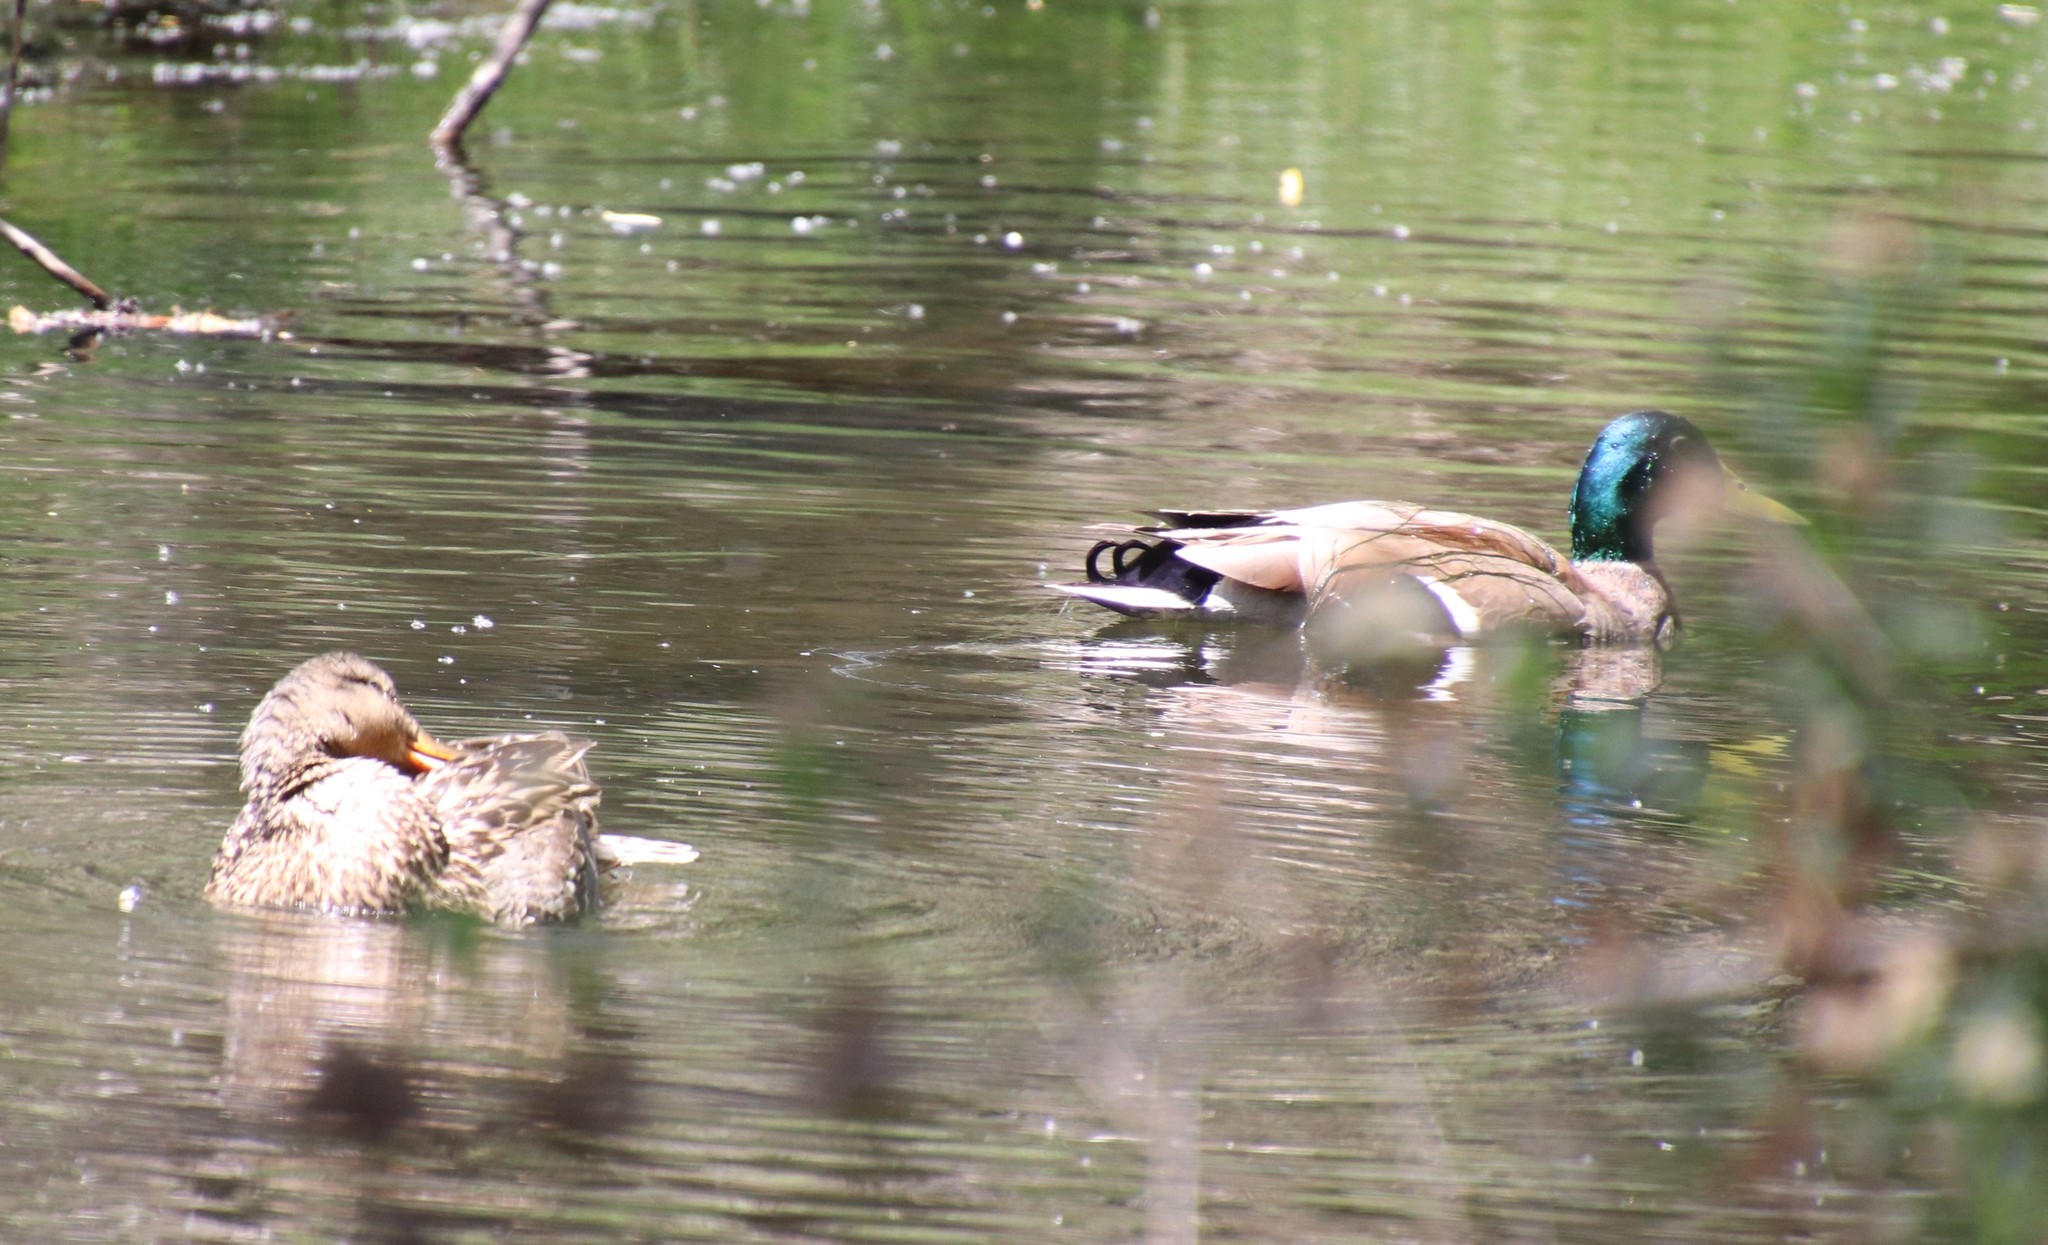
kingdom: Animalia
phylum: Chordata
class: Aves
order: Anseriformes
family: Anatidae
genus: Anas
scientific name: Anas platyrhynchos
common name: Mallard
